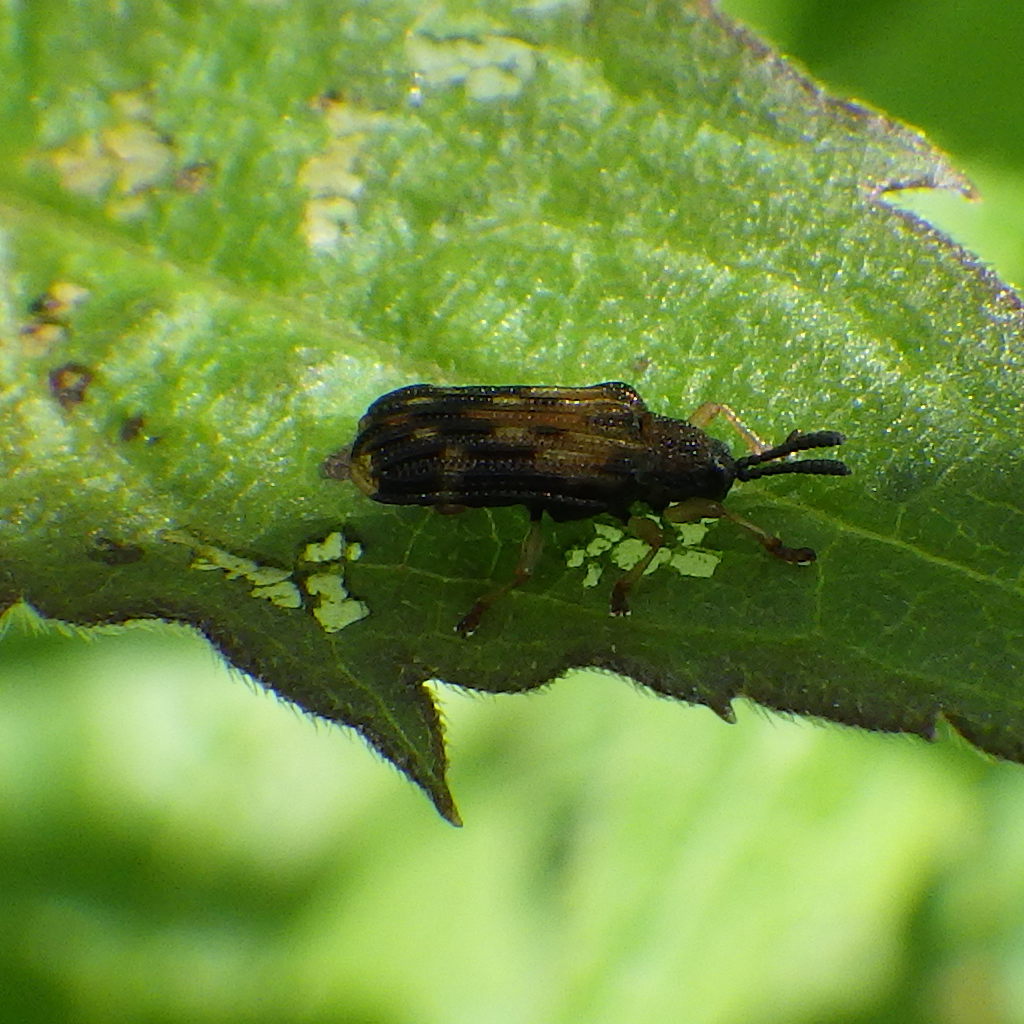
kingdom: Animalia
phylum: Arthropoda
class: Insecta
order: Coleoptera
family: Chrysomelidae
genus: Sumitrosis
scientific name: Sumitrosis inaequalis
